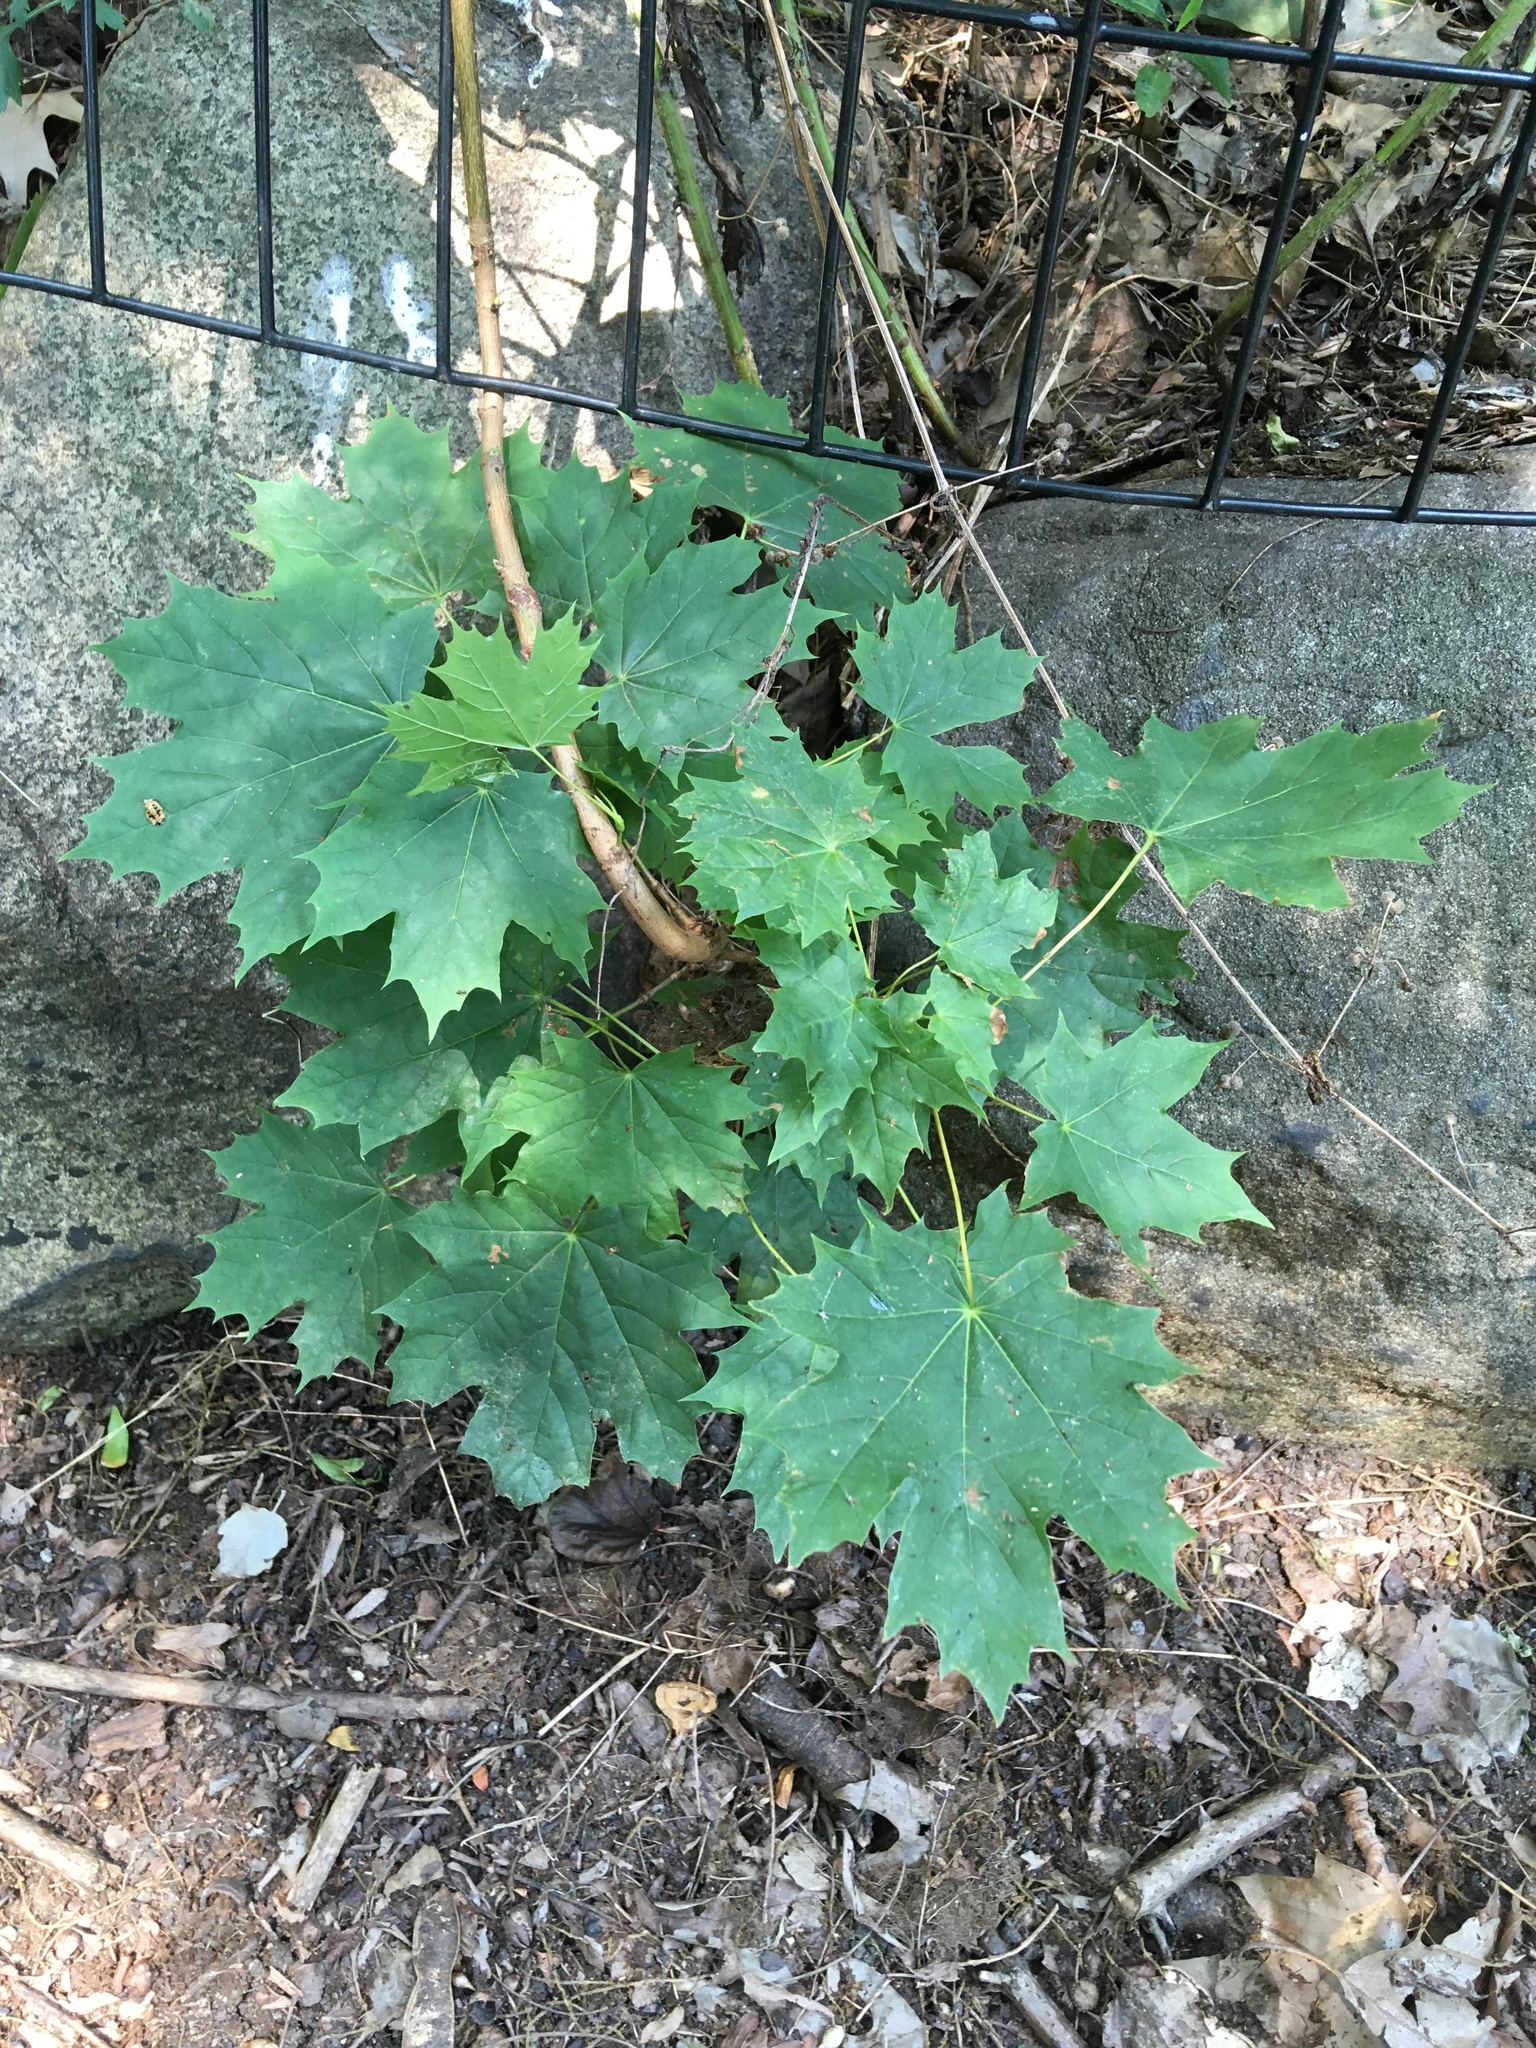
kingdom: Plantae
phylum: Tracheophyta
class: Magnoliopsida
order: Sapindales
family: Sapindaceae
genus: Acer
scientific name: Acer platanoides
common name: Norway maple
